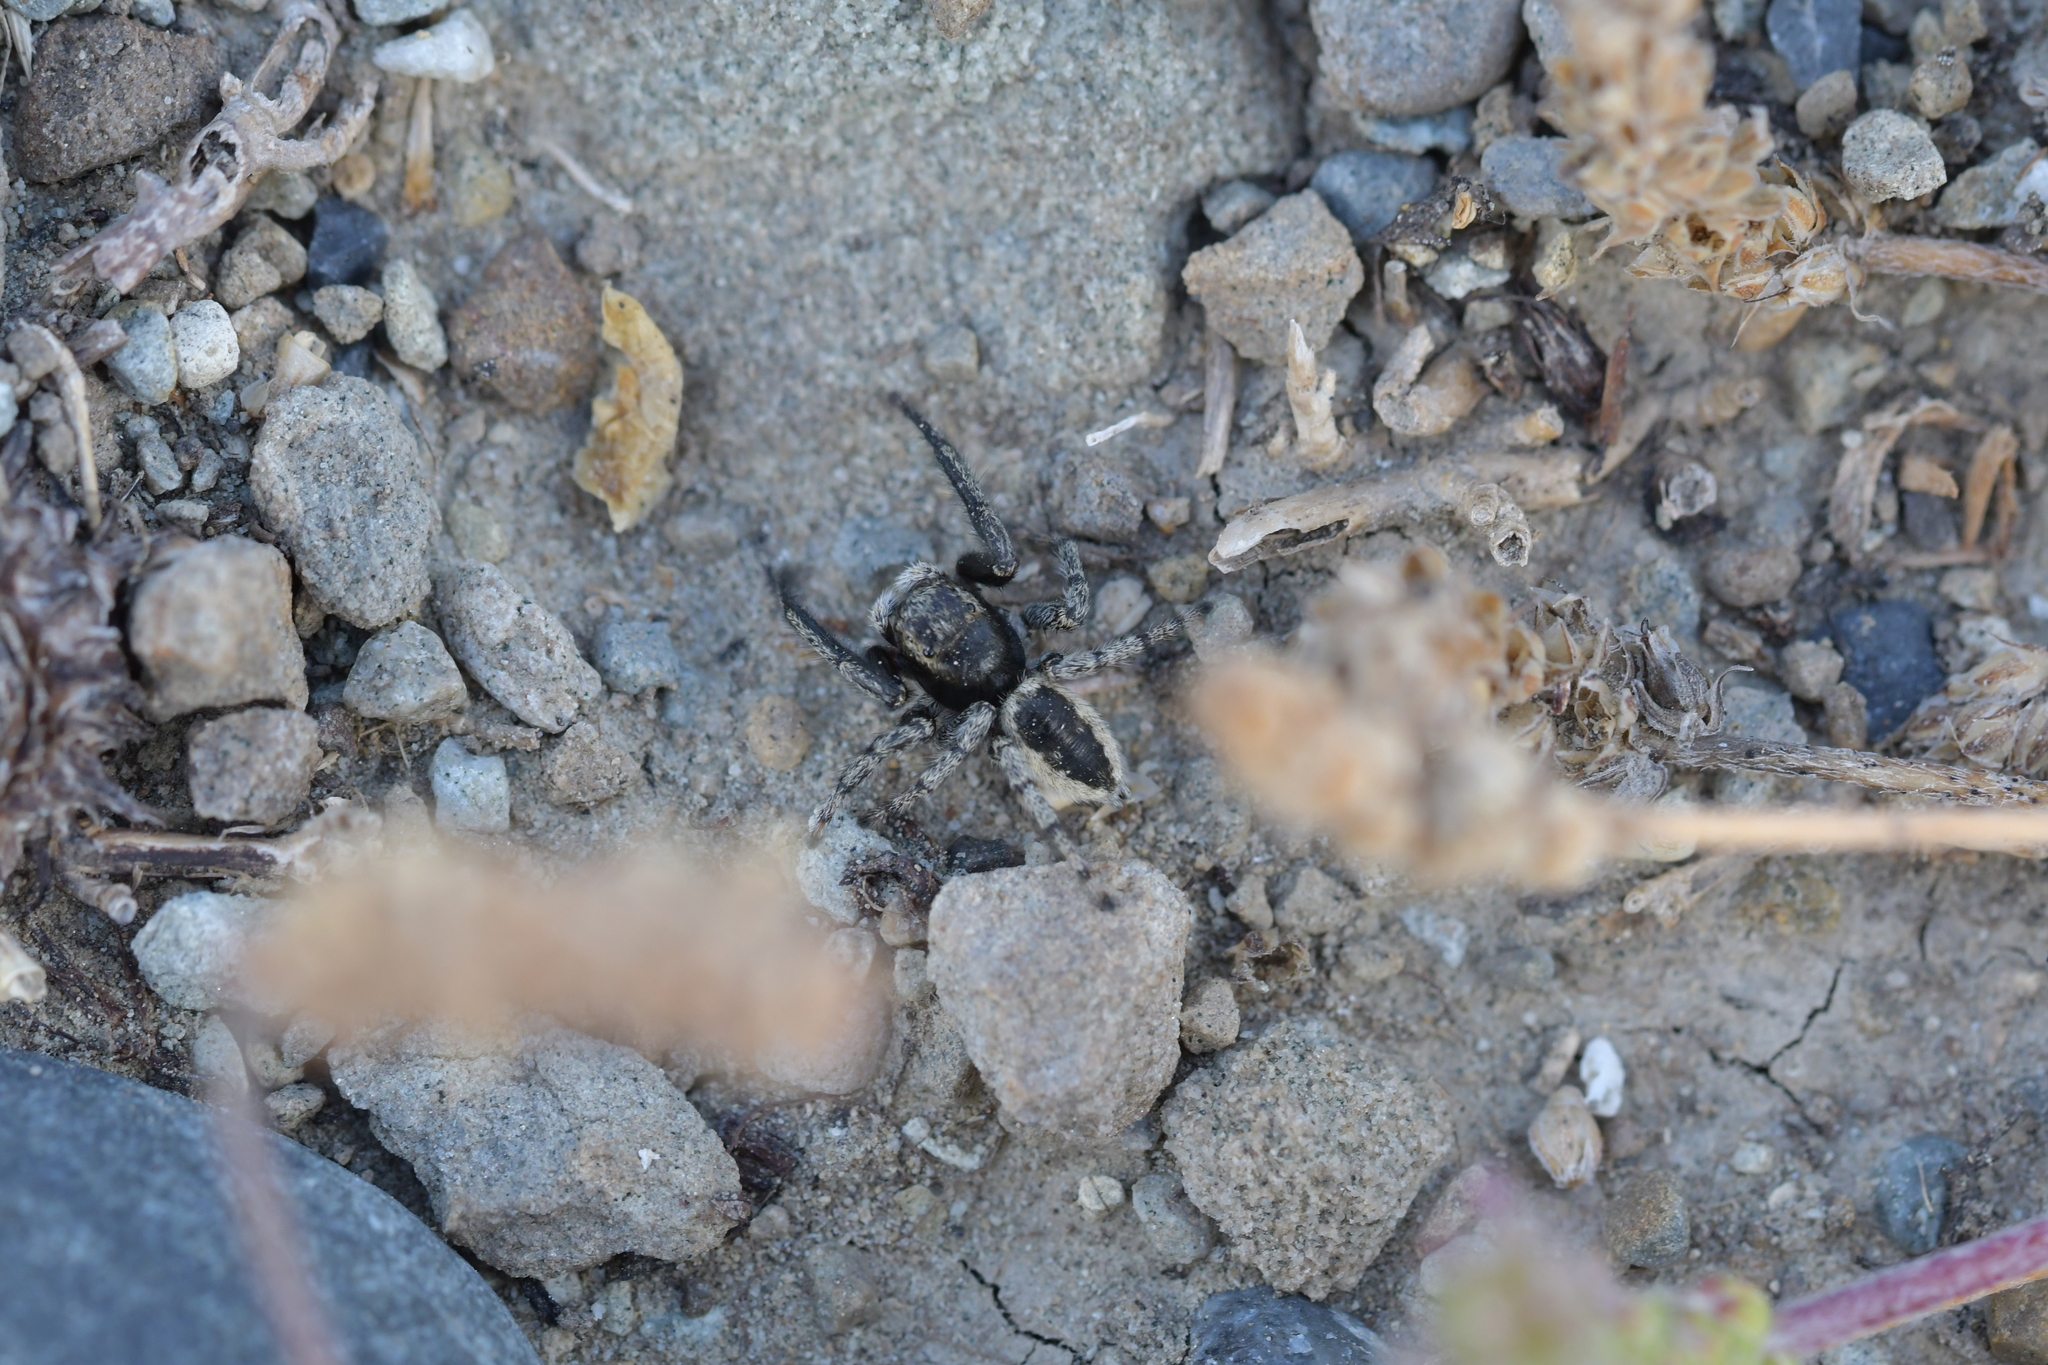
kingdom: Animalia
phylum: Arthropoda
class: Arachnida
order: Araneae
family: Salticidae
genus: Marpissa
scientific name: Marpissa marina
